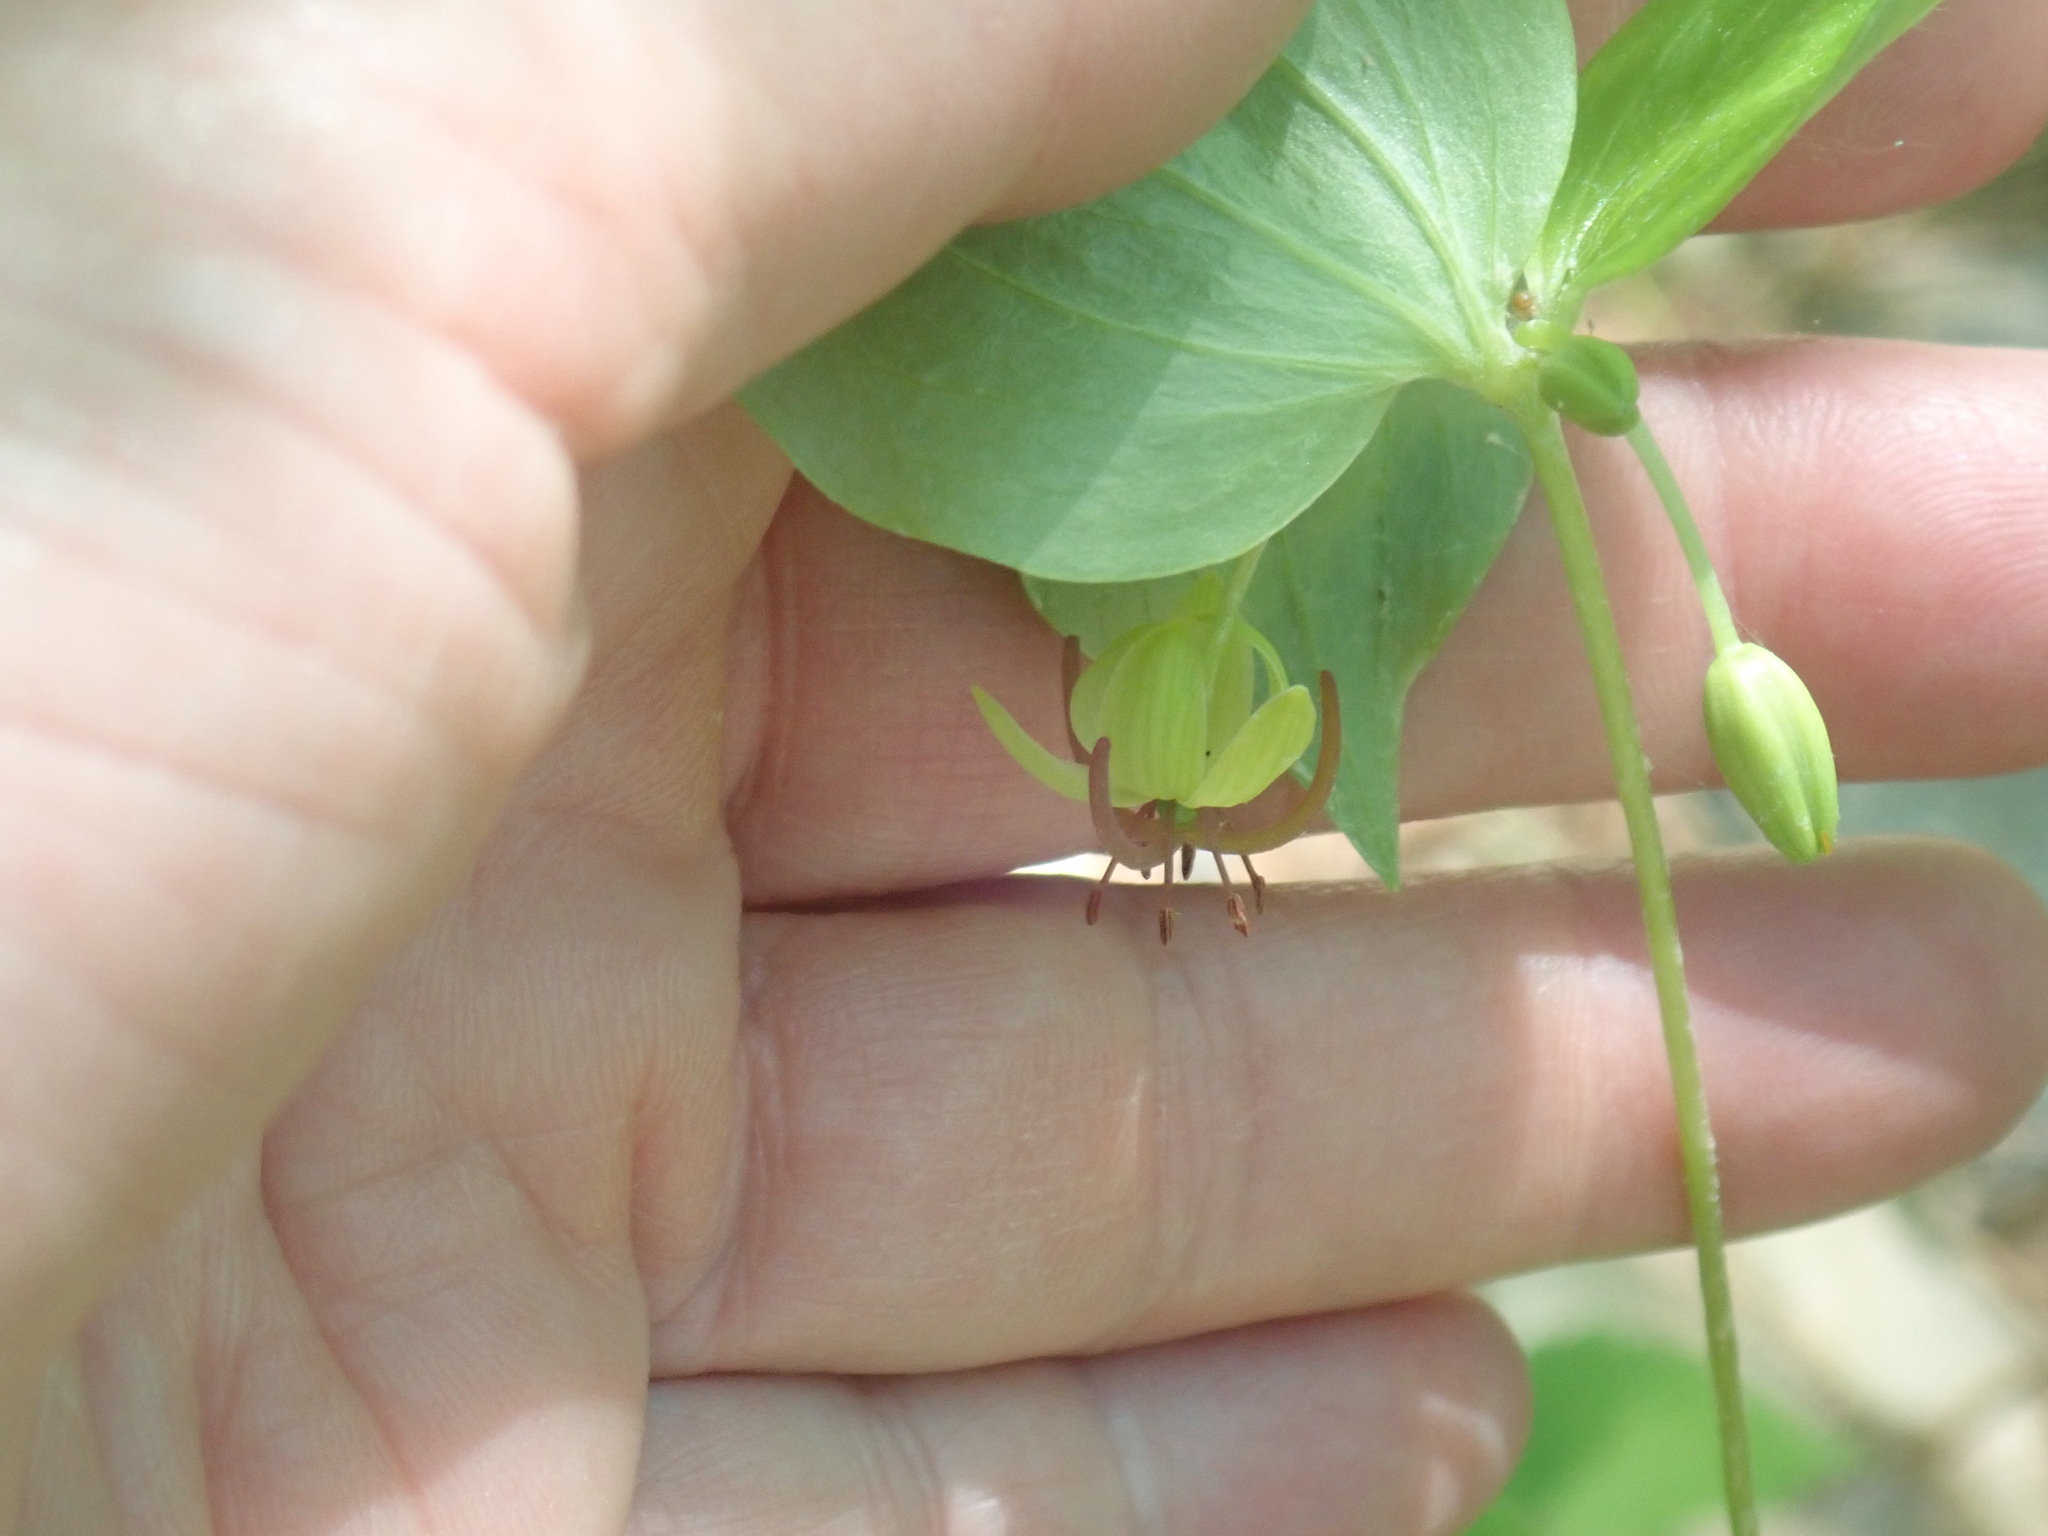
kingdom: Plantae
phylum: Tracheophyta
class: Liliopsida
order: Liliales
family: Liliaceae
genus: Medeola
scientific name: Medeola virginiana
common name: Indian cucumber-root
